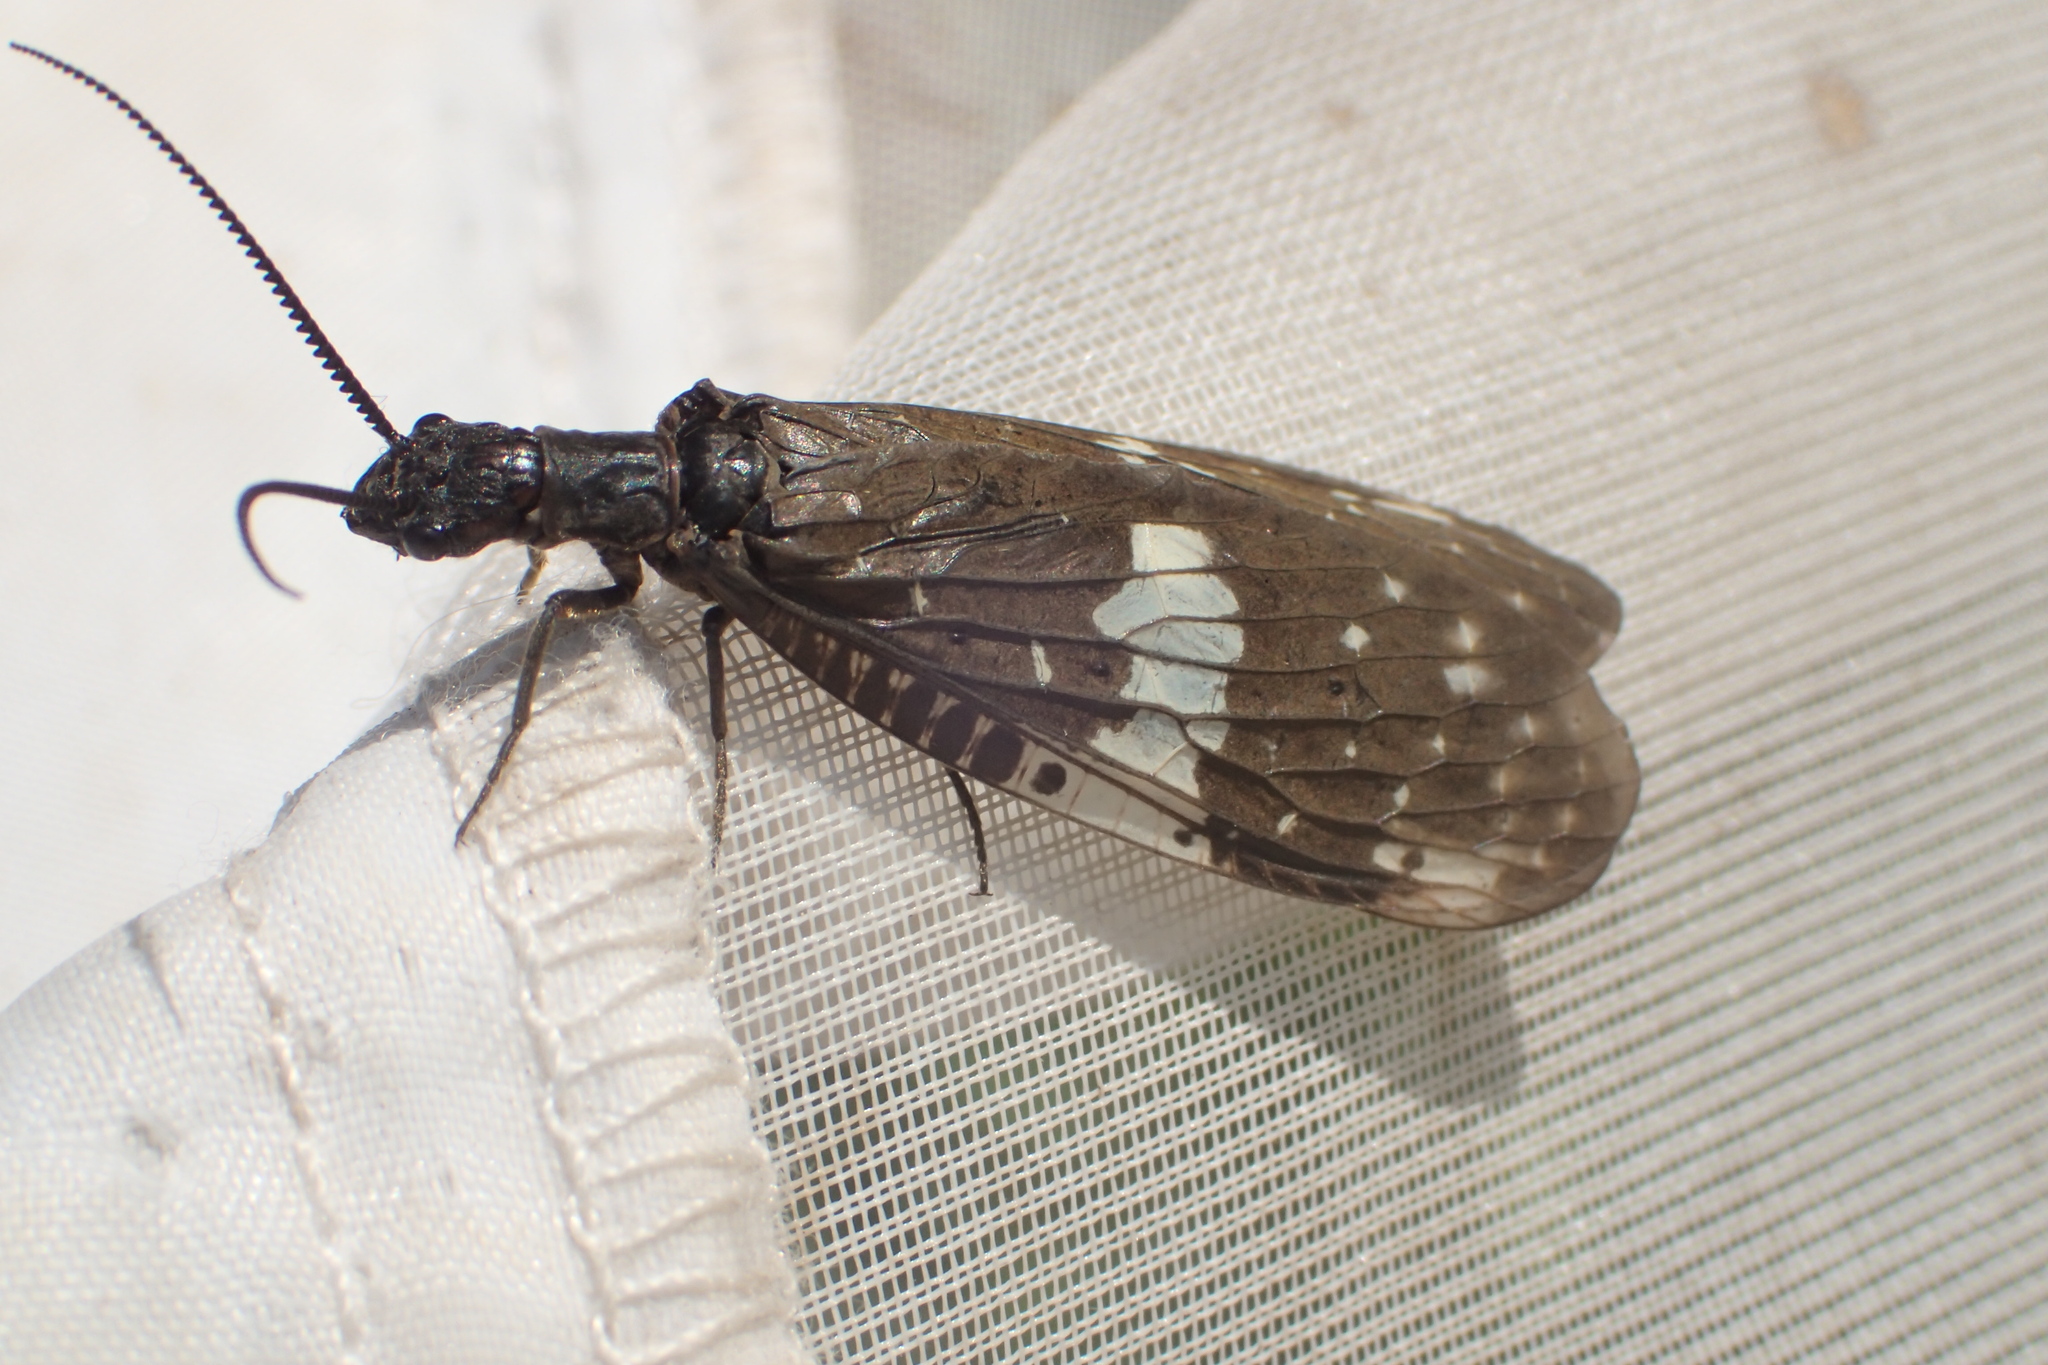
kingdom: Animalia
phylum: Arthropoda
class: Insecta
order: Megaloptera
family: Corydalidae
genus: Nigronia
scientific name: Nigronia serricornis
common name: Serrate dark fishfly
